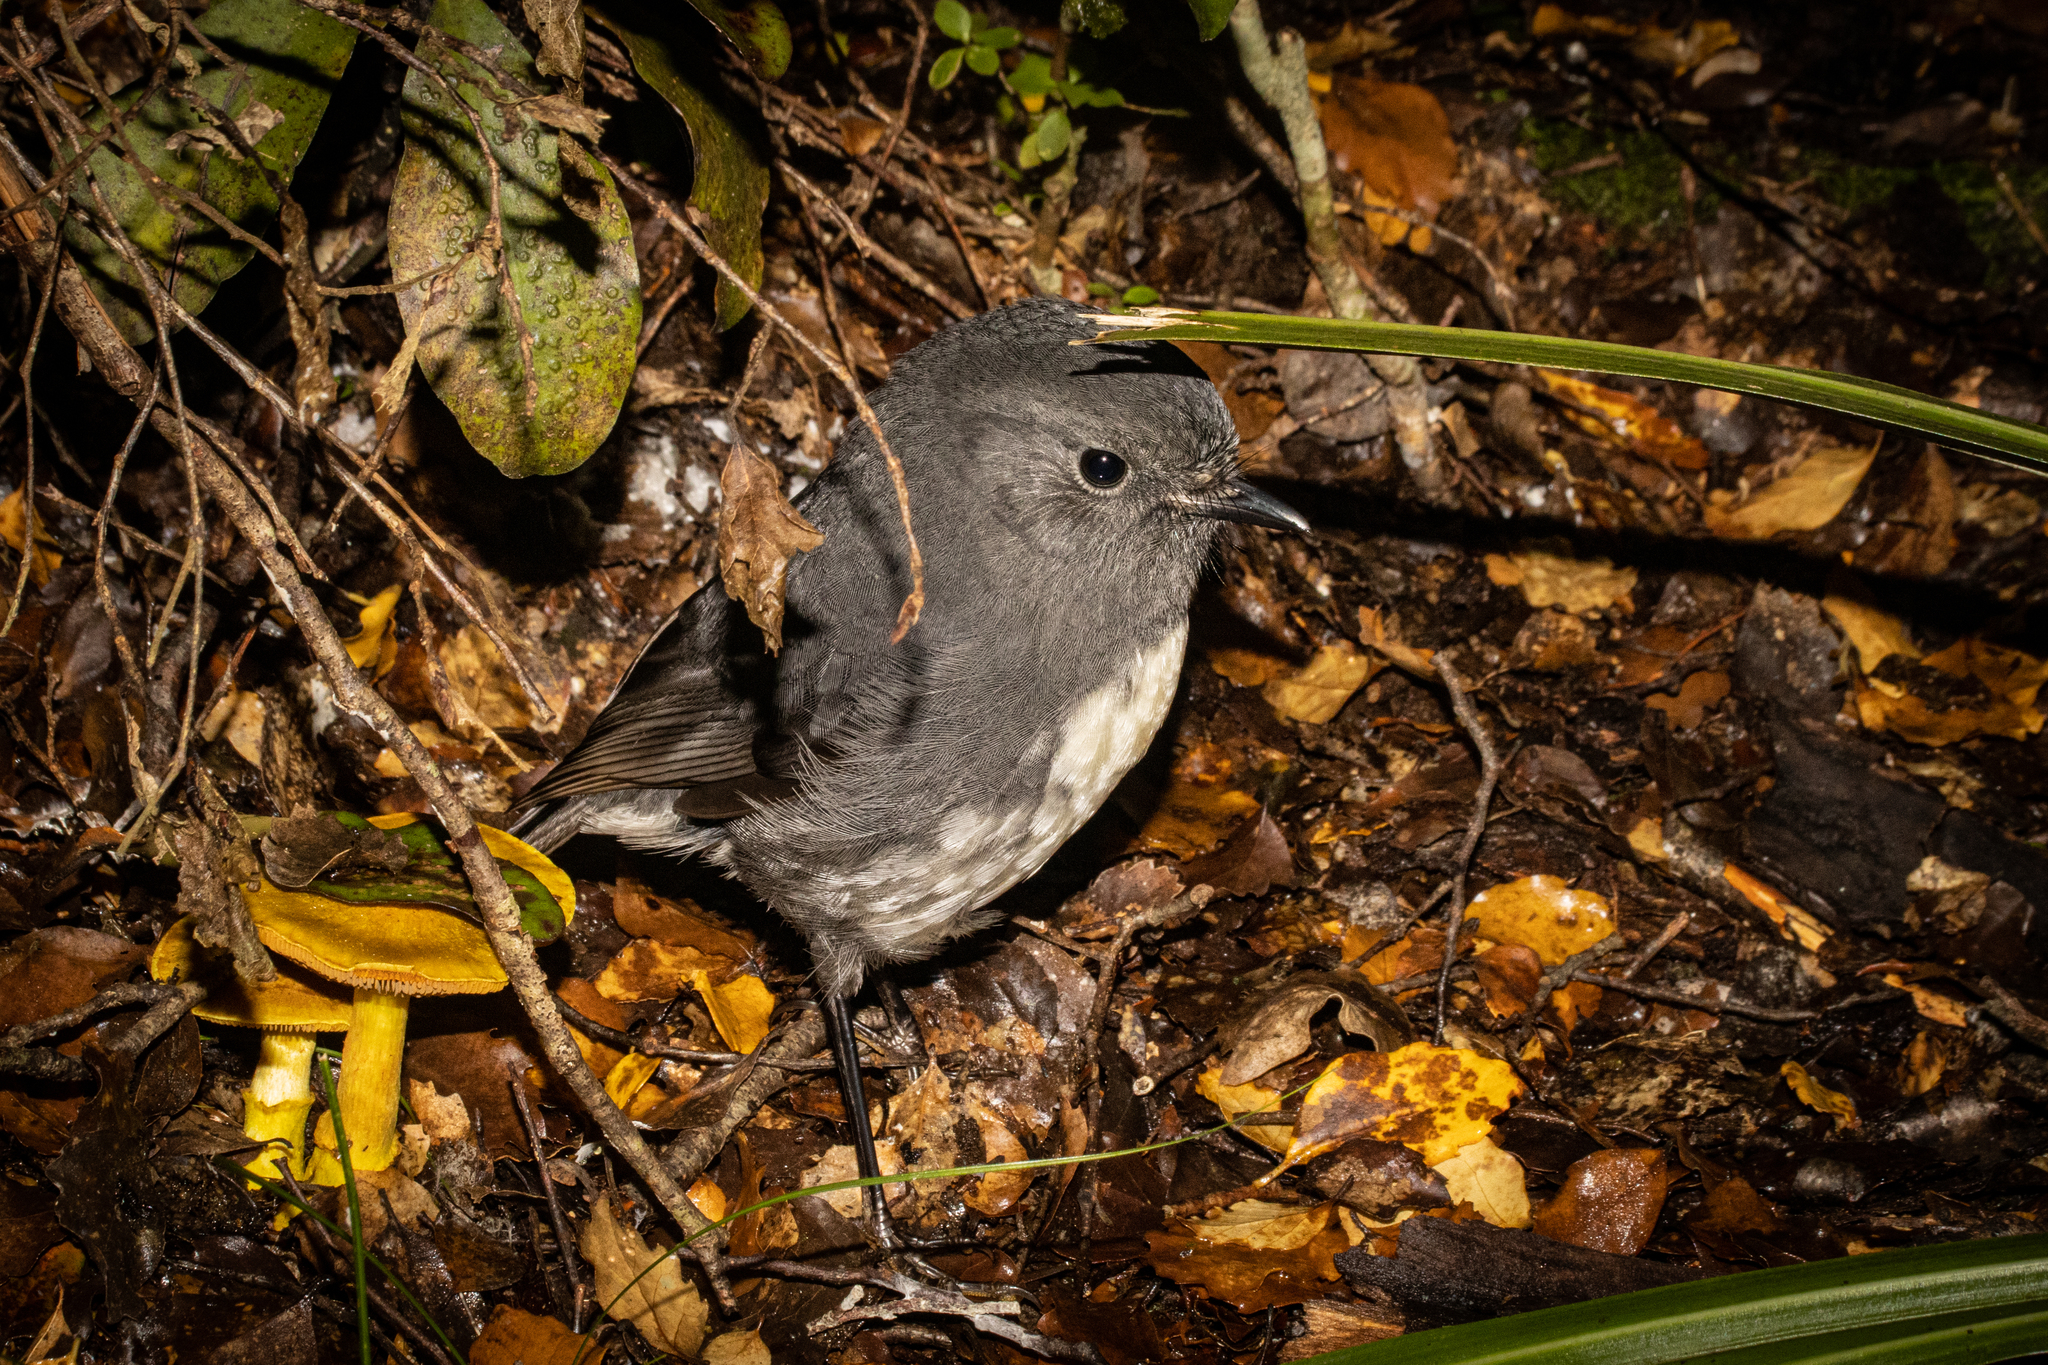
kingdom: Animalia
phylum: Chordata
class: Aves
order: Passeriformes
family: Petroicidae
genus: Petroica
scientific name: Petroica australis
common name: New zealand robin
